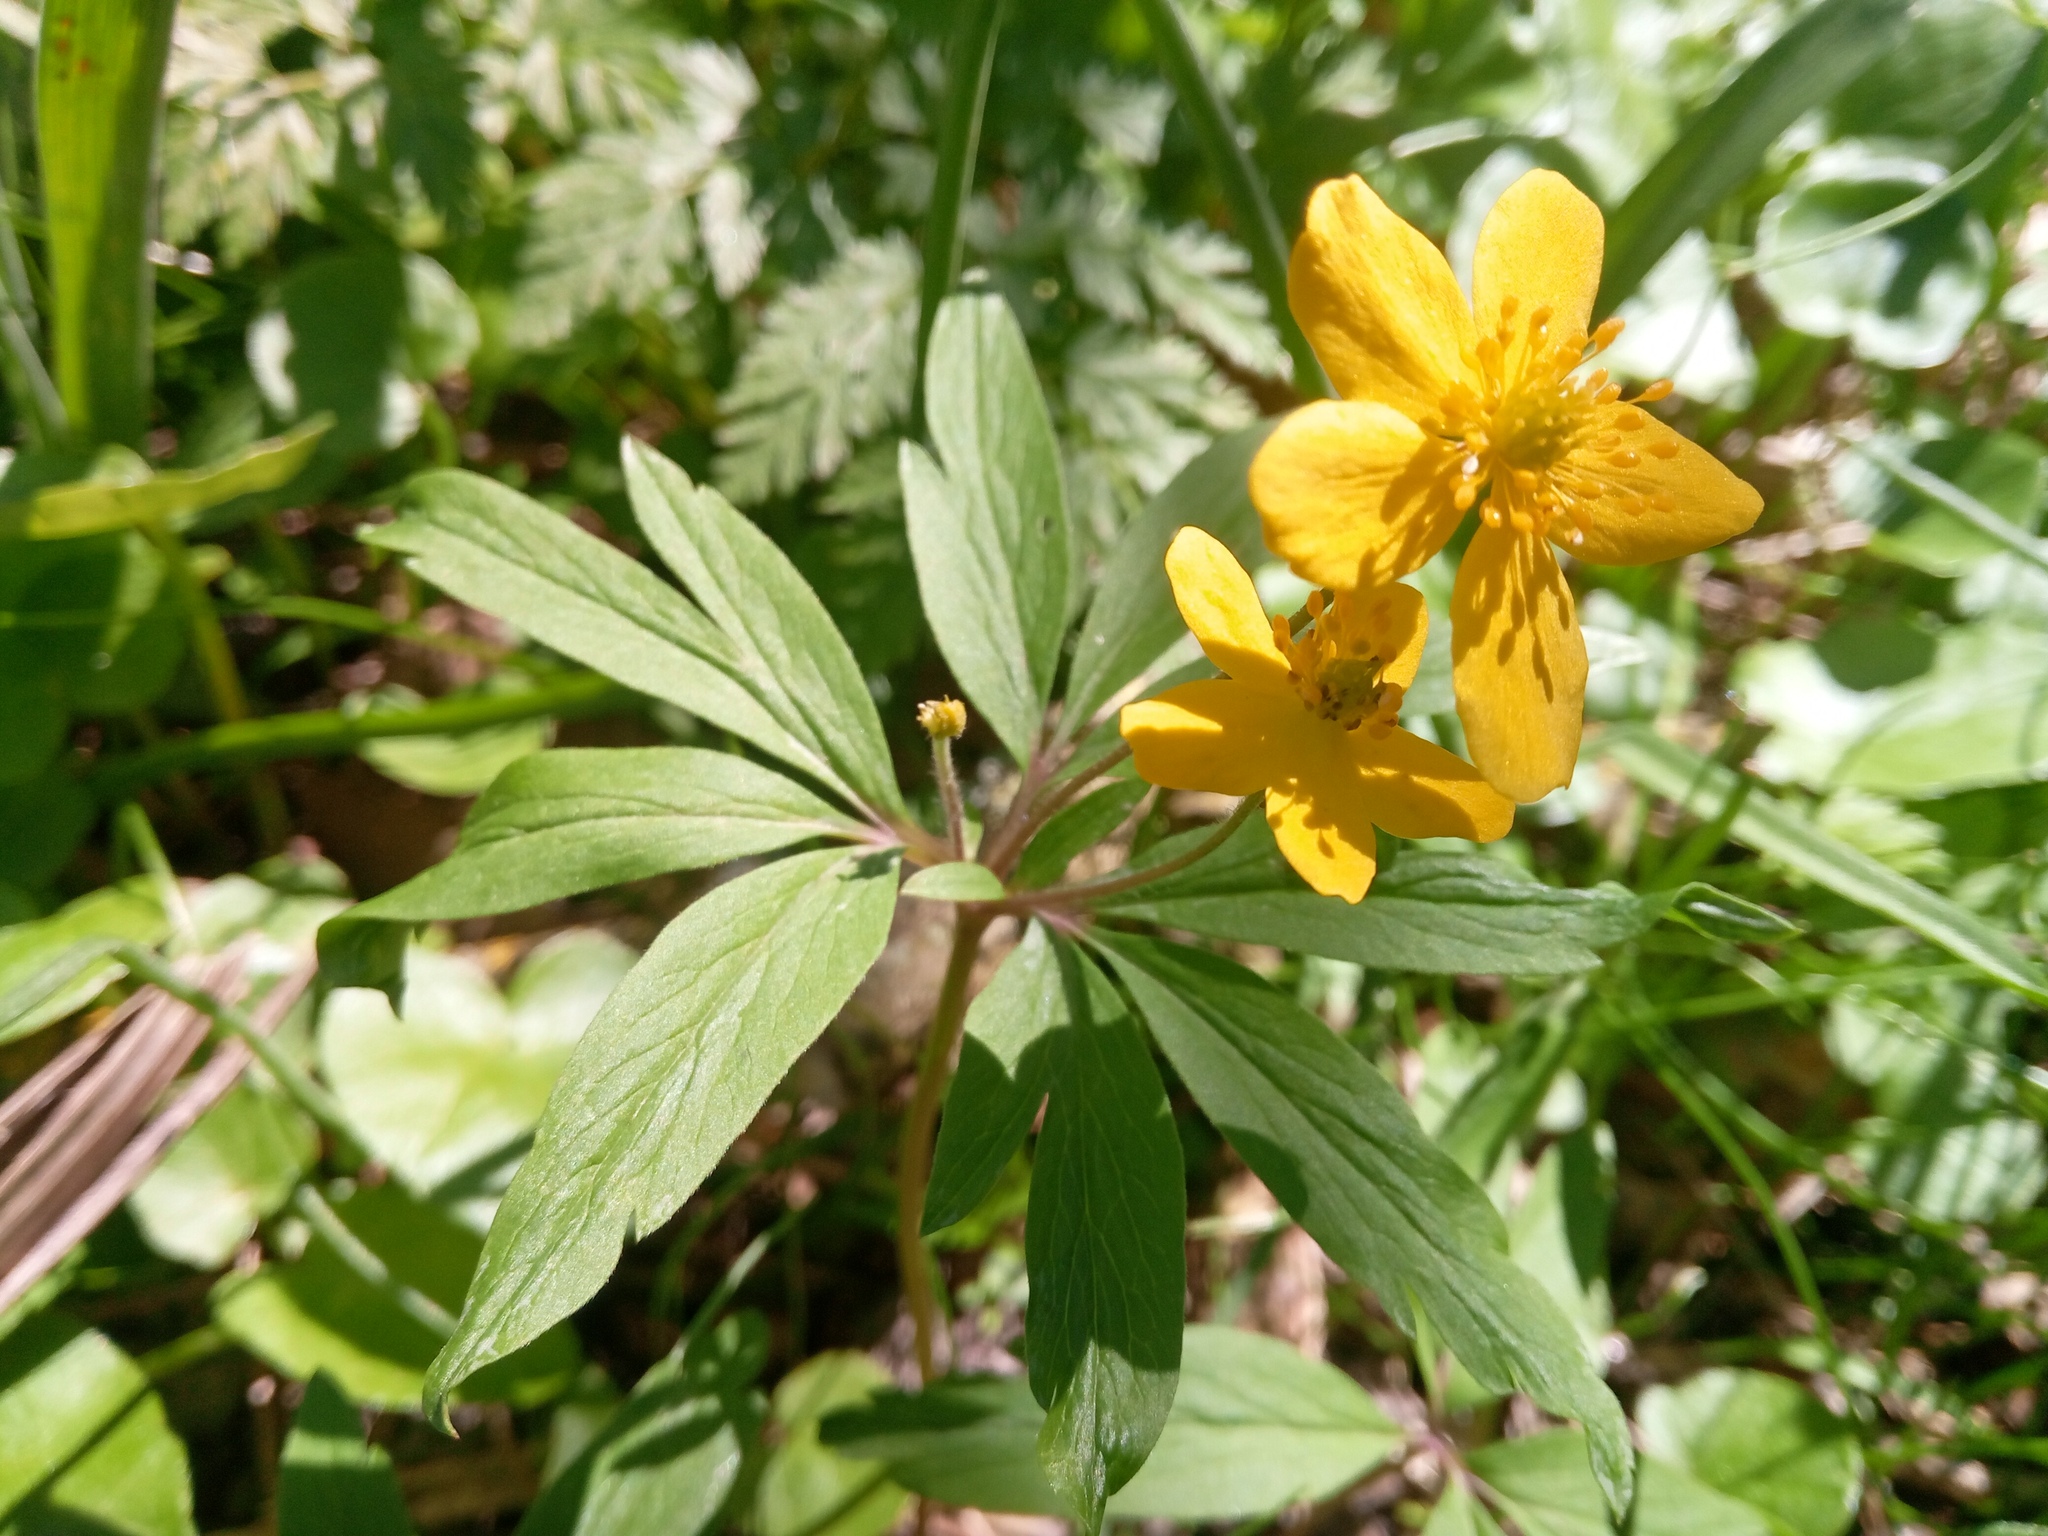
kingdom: Plantae
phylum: Tracheophyta
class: Magnoliopsida
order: Ranunculales
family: Ranunculaceae
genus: Anemone
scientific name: Anemone ranunculoides
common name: Yellow anemone
